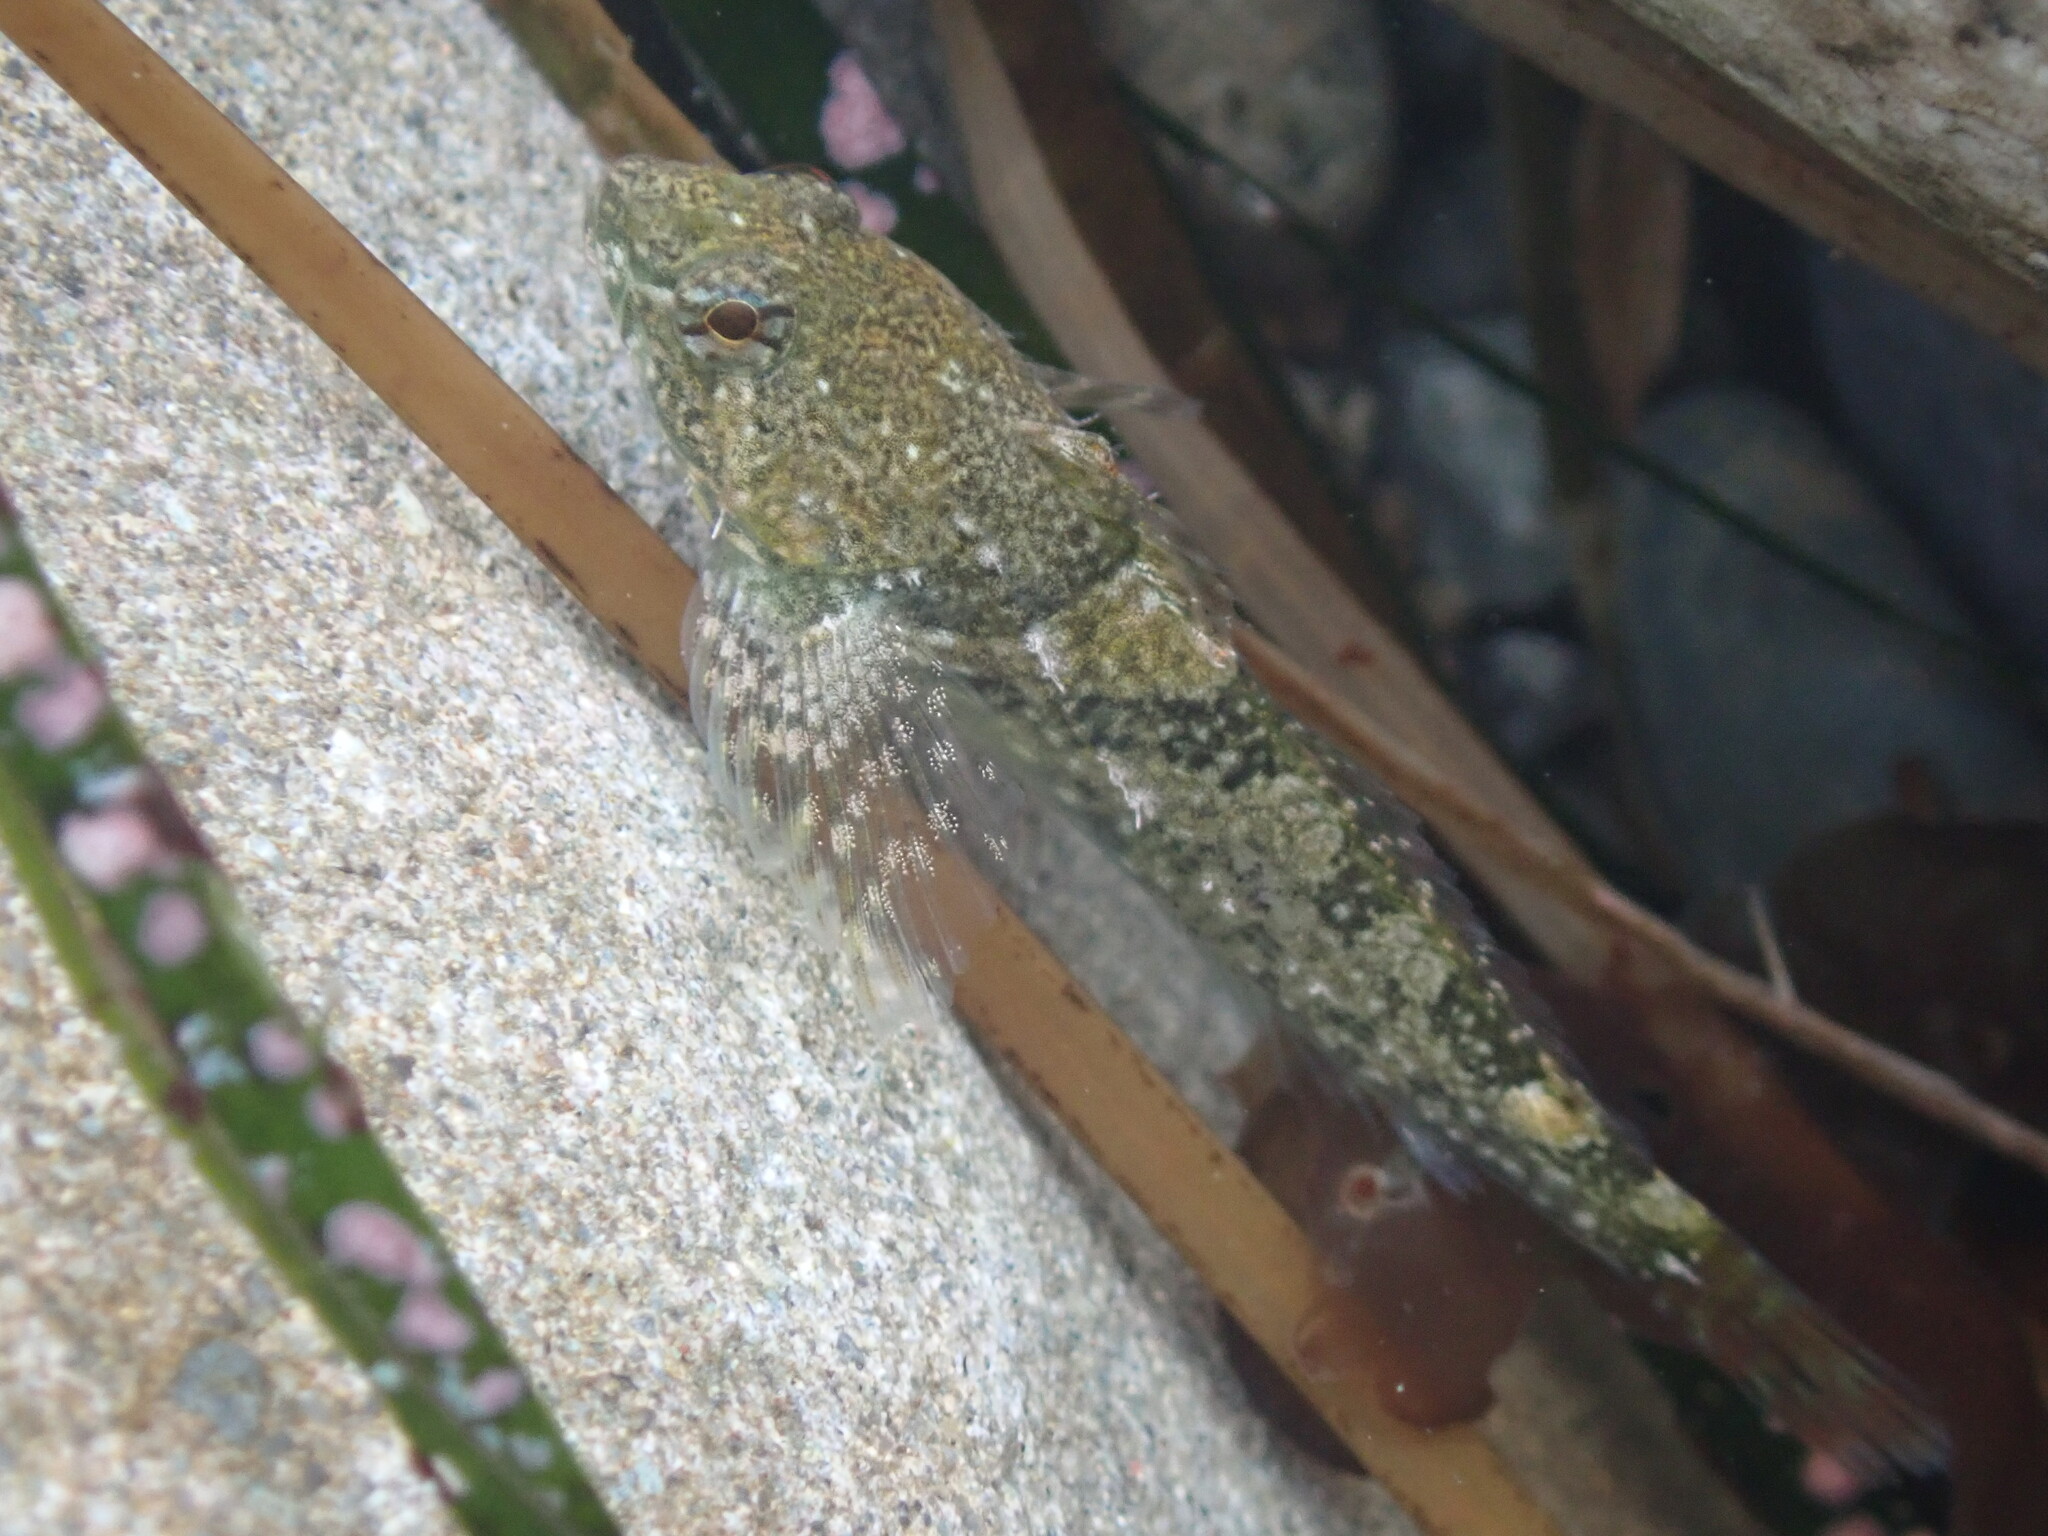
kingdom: Animalia
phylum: Chordata
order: Scorpaeniformes
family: Cottidae
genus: Oligocottus
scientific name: Oligocottus maculosus
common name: Tidepool sculpin
